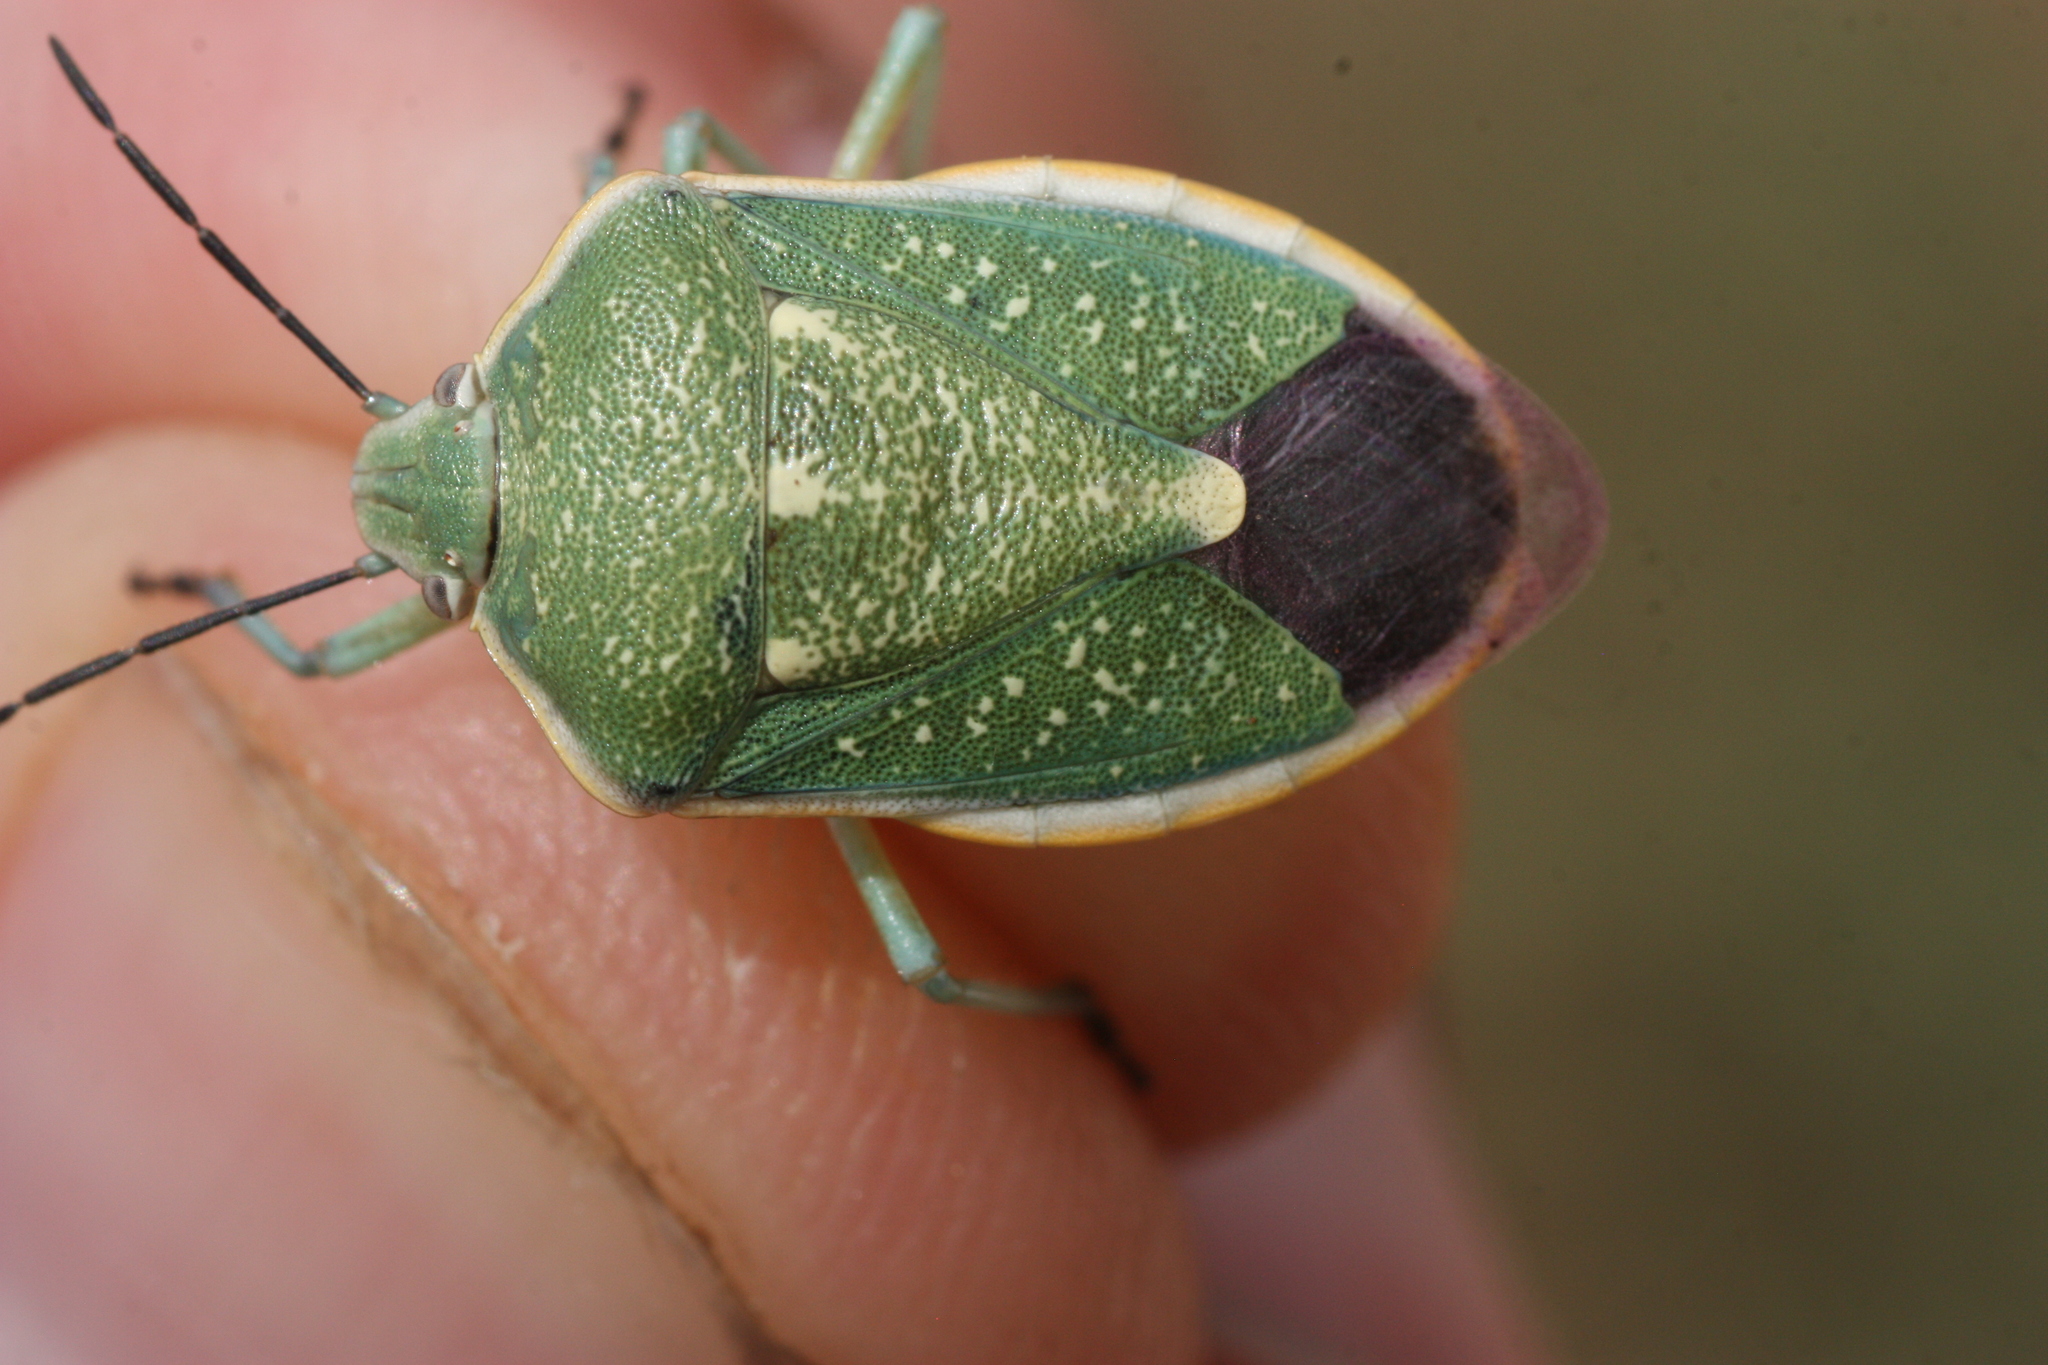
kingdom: Animalia
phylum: Arthropoda
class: Insecta
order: Hemiptera
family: Pentatomidae
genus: Chlorochroa
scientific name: Chlorochroa sayi
